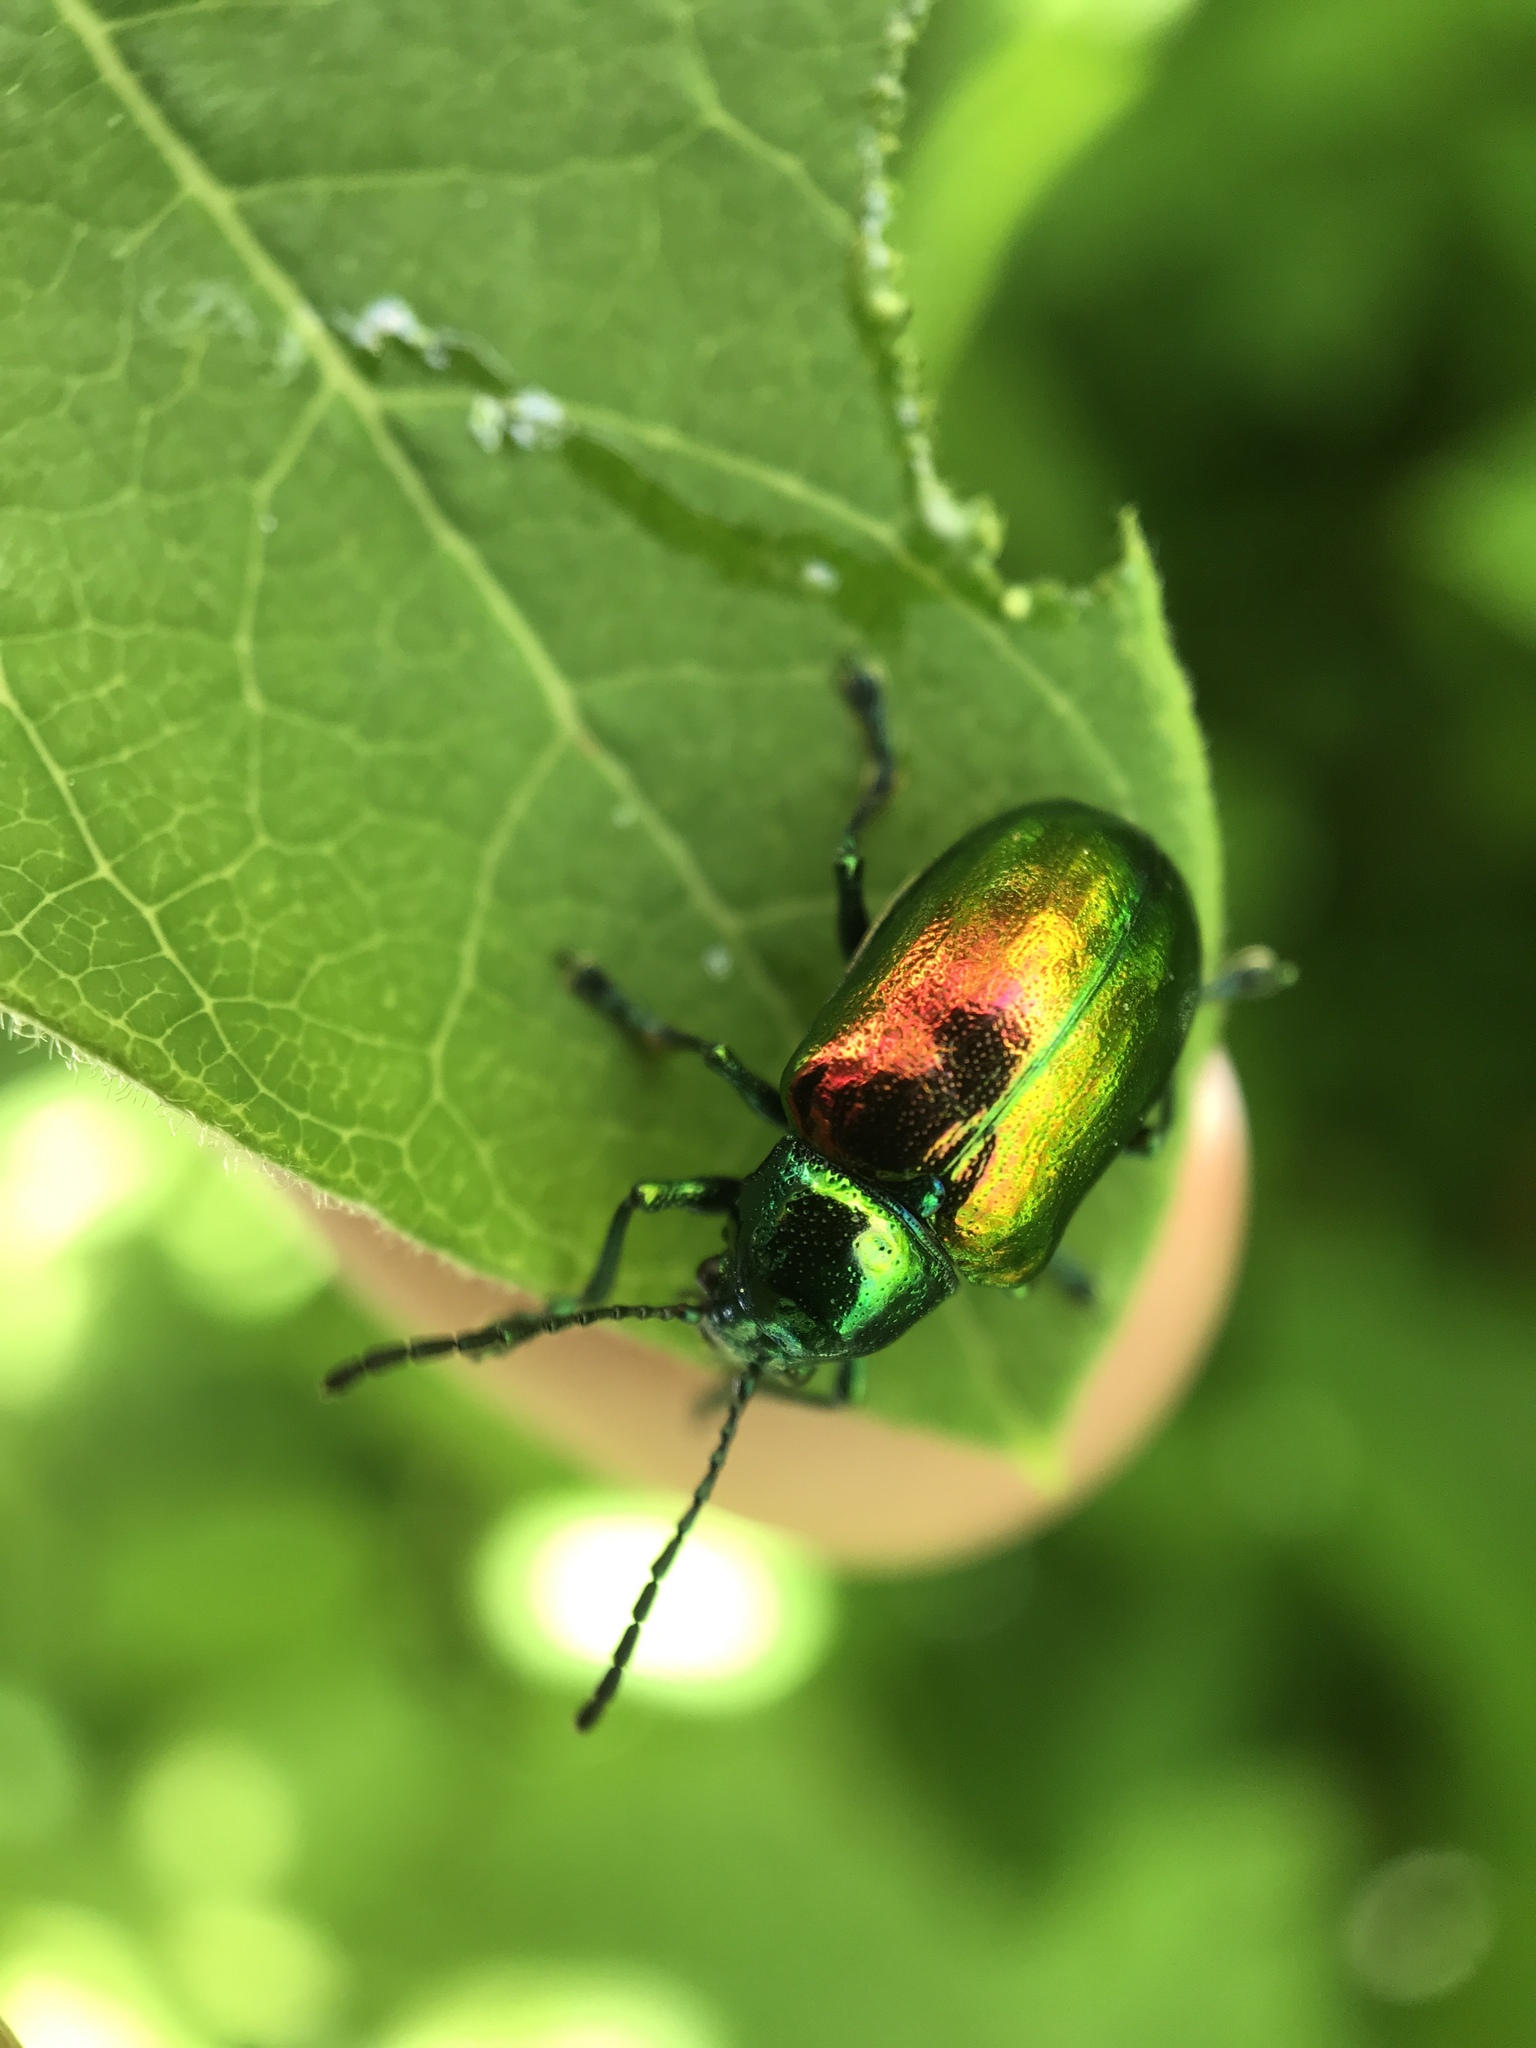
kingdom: Animalia
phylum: Arthropoda
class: Insecta
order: Coleoptera
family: Chrysomelidae
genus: Chrysochus
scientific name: Chrysochus auratus
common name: Dogbane leaf beetle
